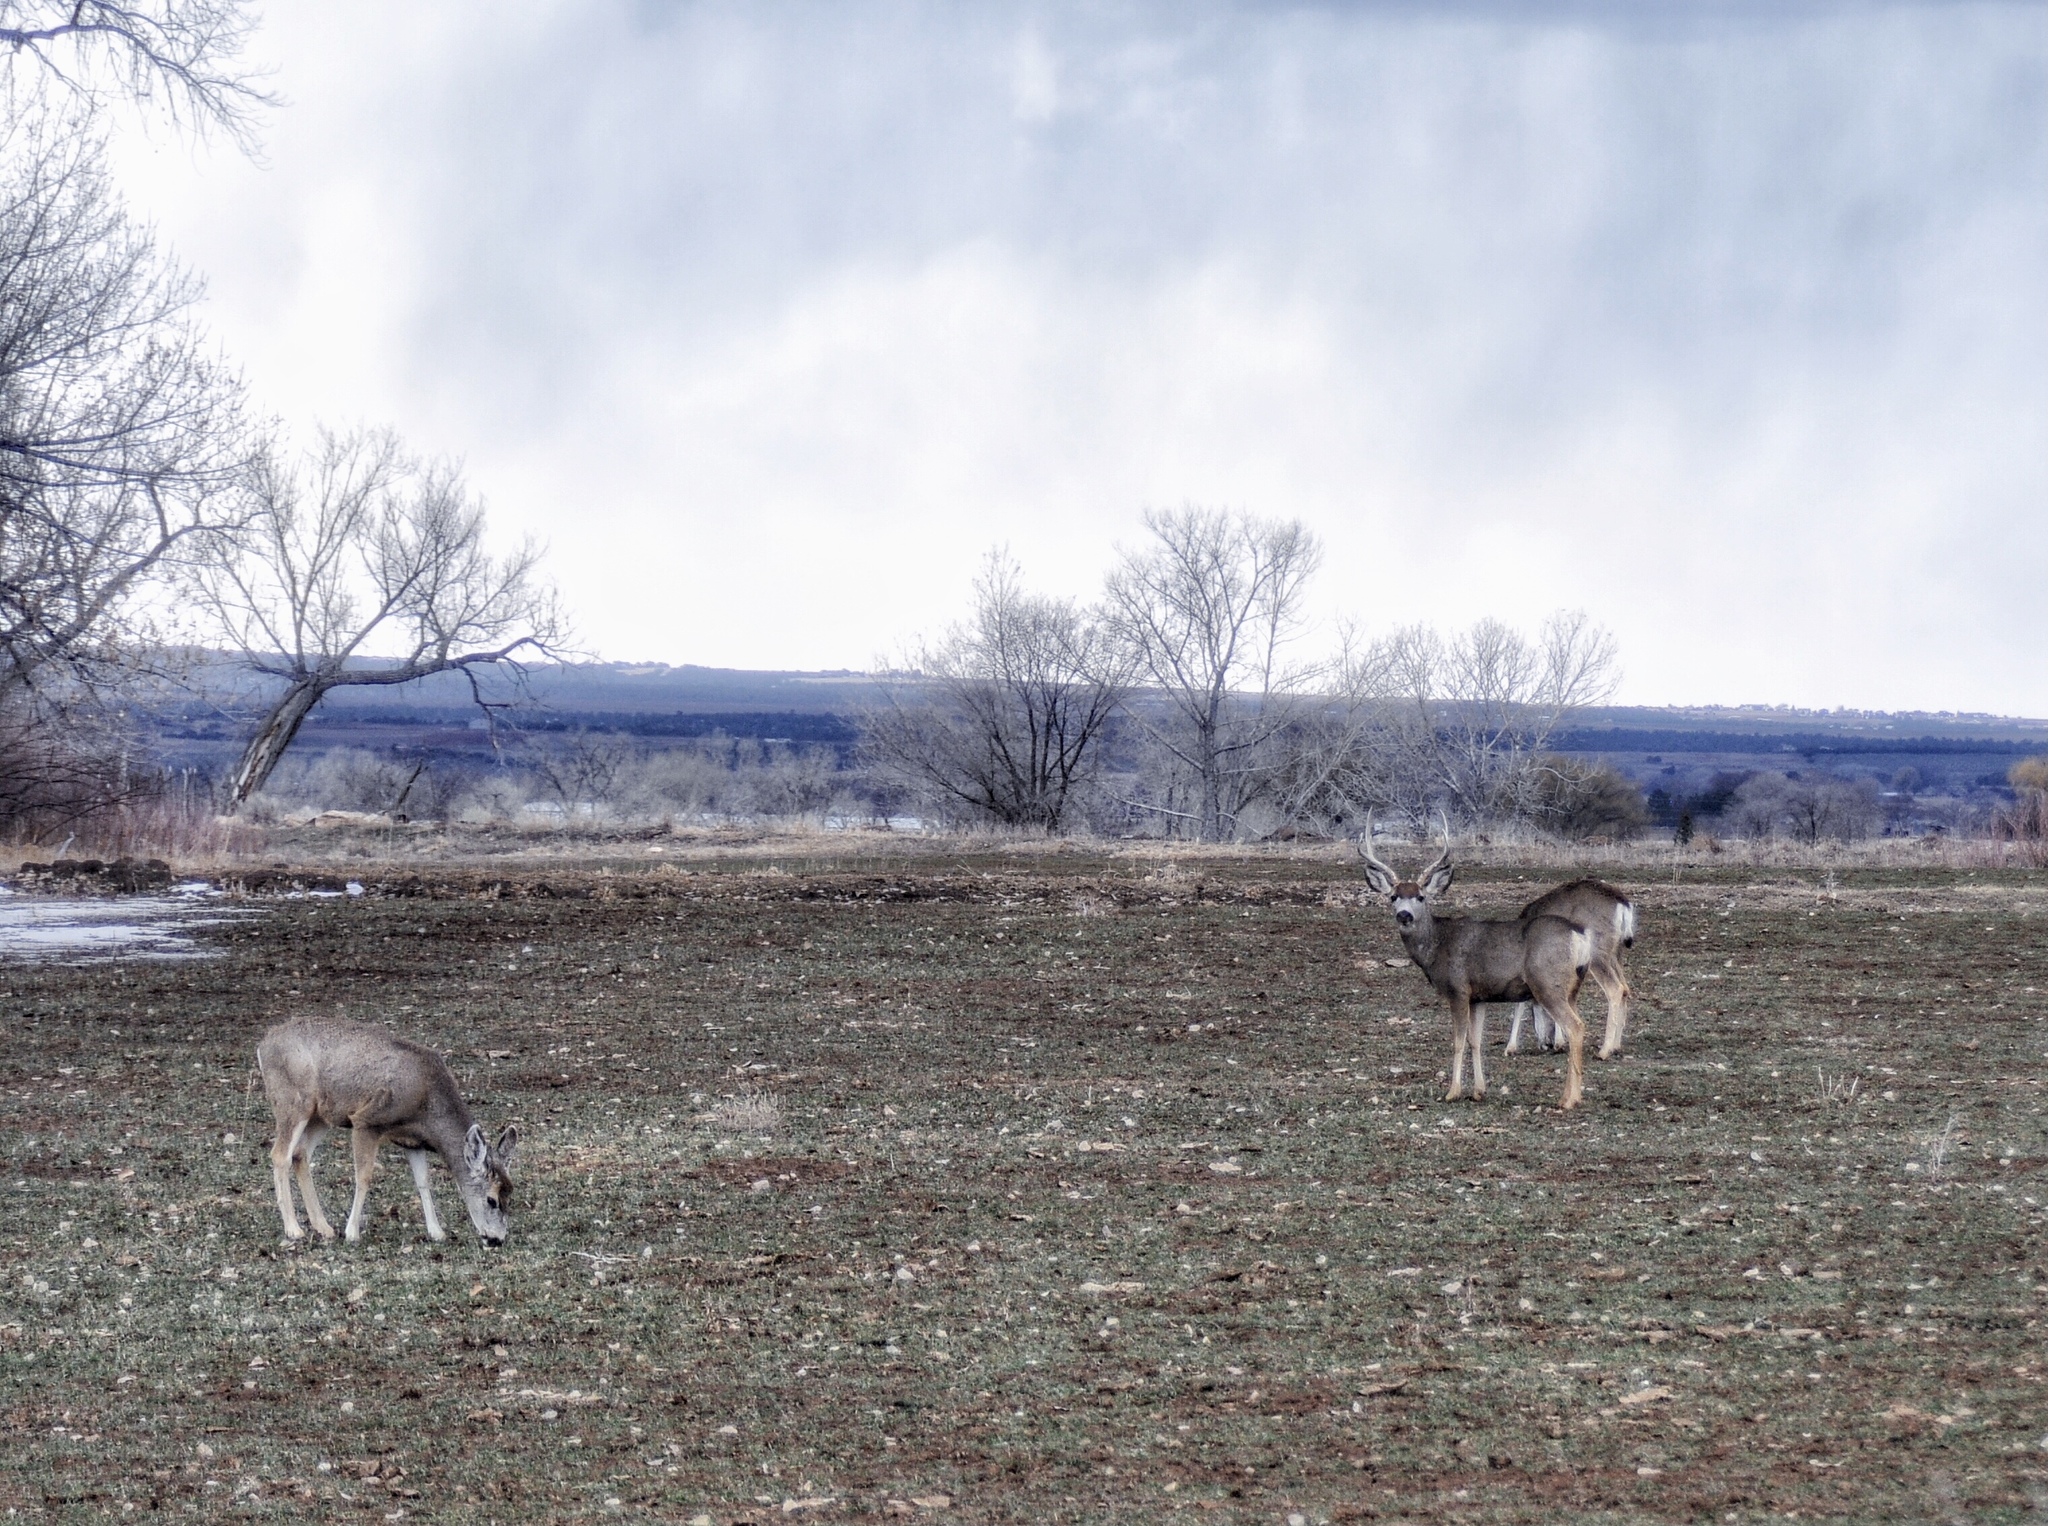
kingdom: Animalia
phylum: Chordata
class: Mammalia
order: Artiodactyla
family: Cervidae
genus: Odocoileus
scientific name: Odocoileus hemionus
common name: Mule deer
